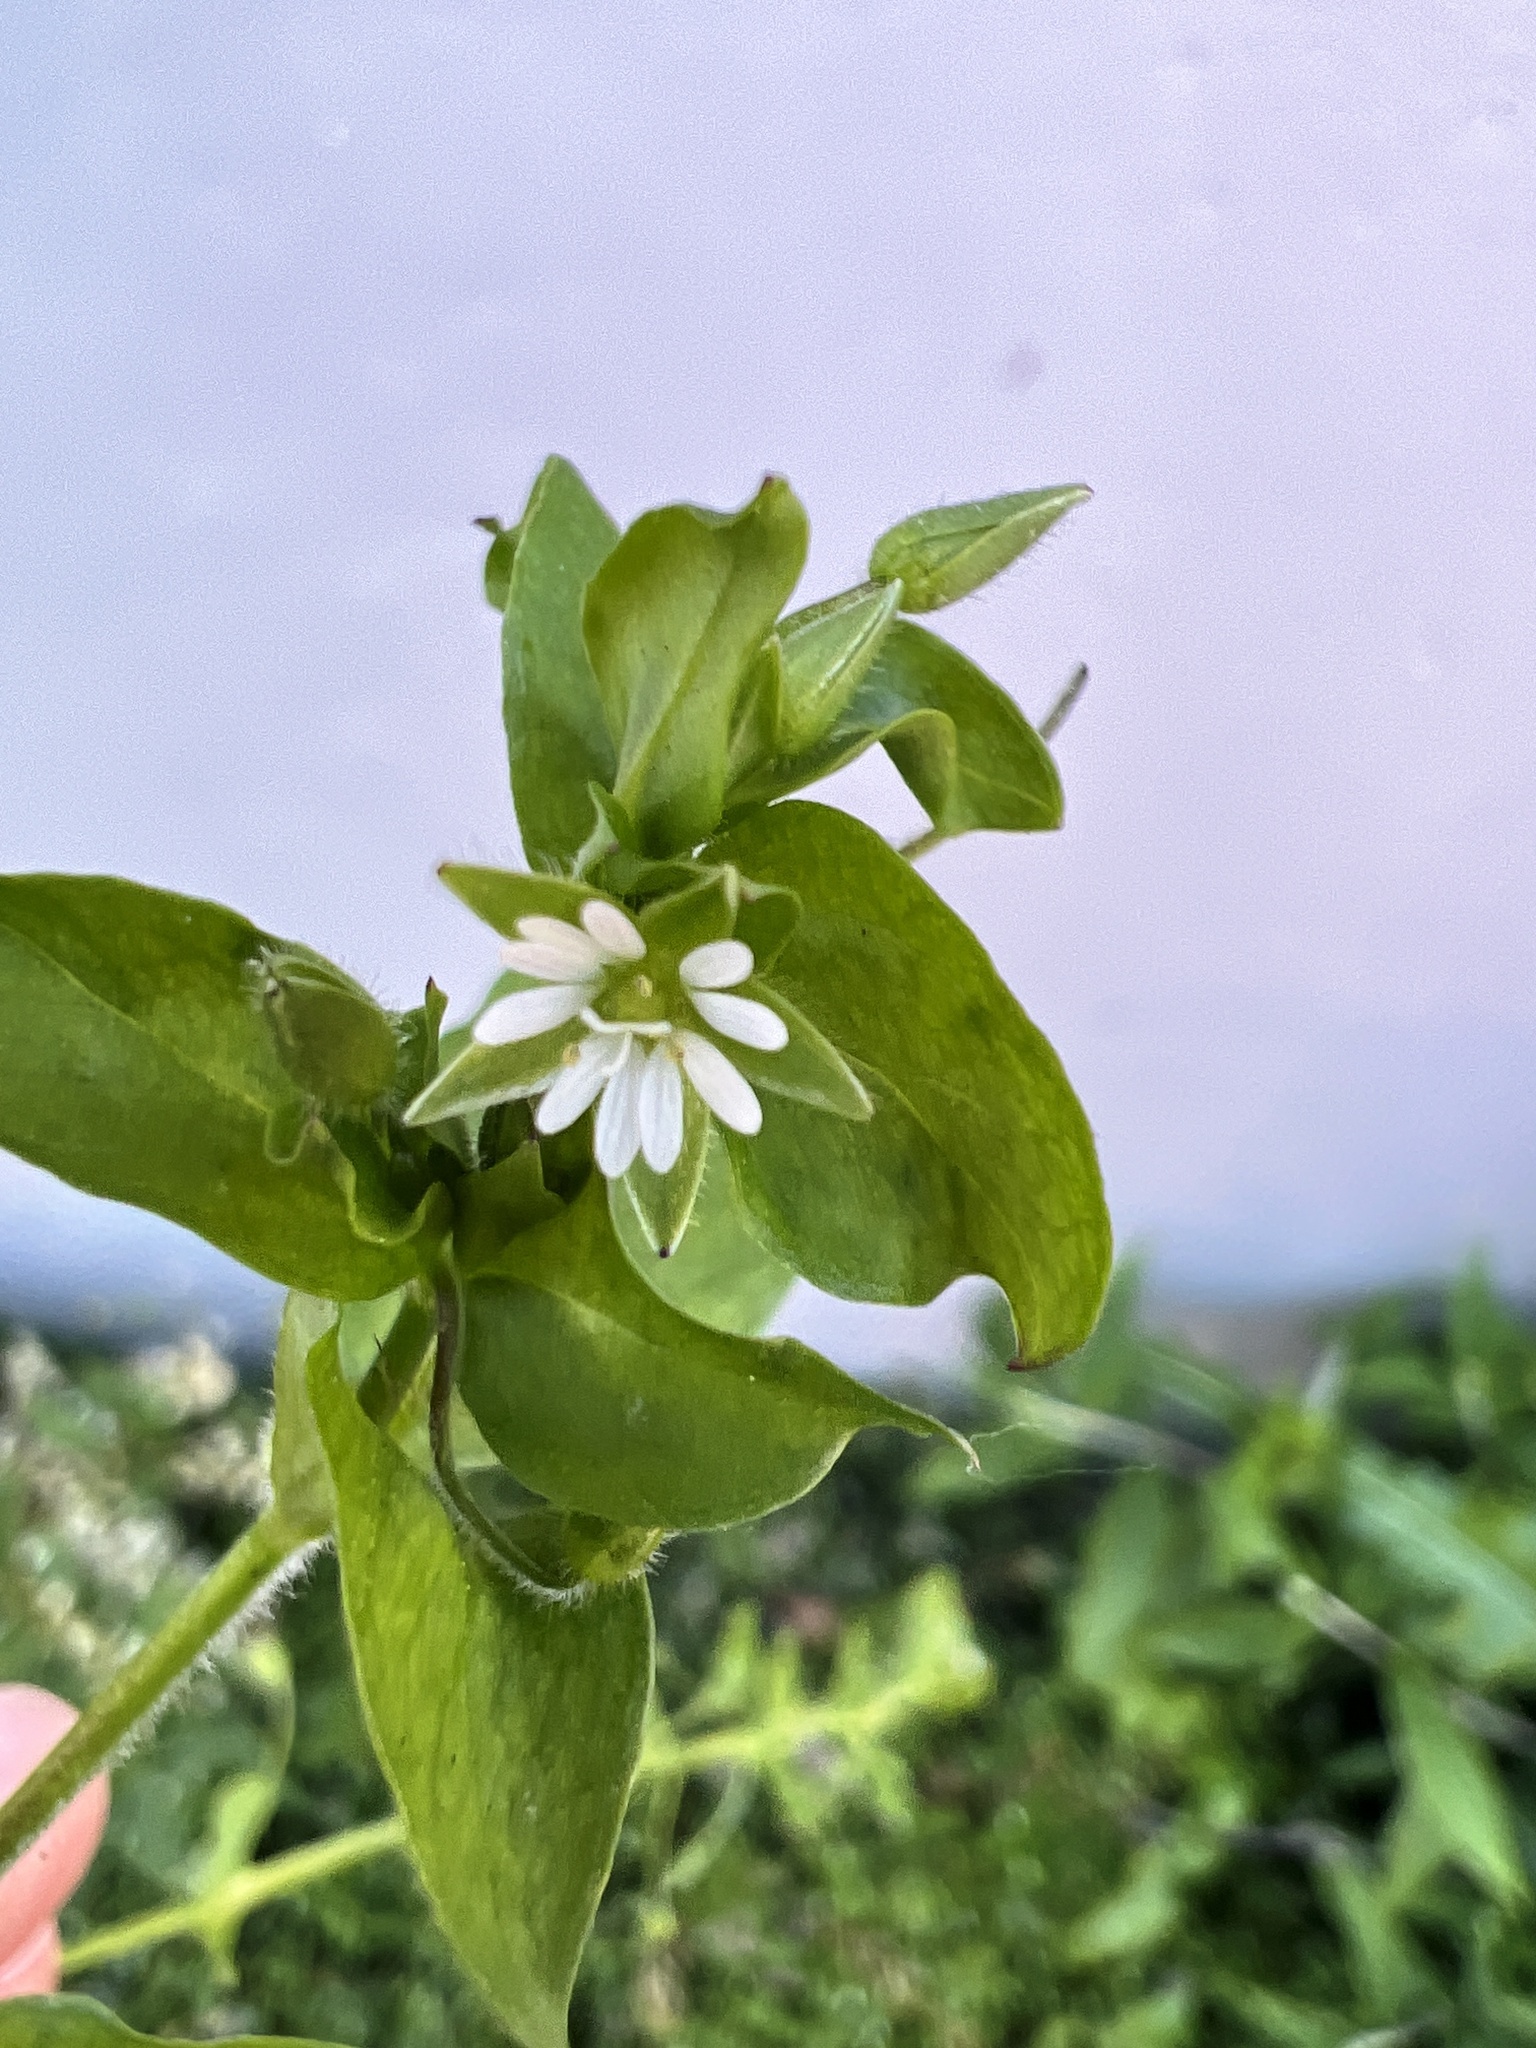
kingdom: Plantae
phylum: Tracheophyta
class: Magnoliopsida
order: Caryophyllales
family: Caryophyllaceae
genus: Stellaria
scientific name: Stellaria media
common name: Common chickweed
